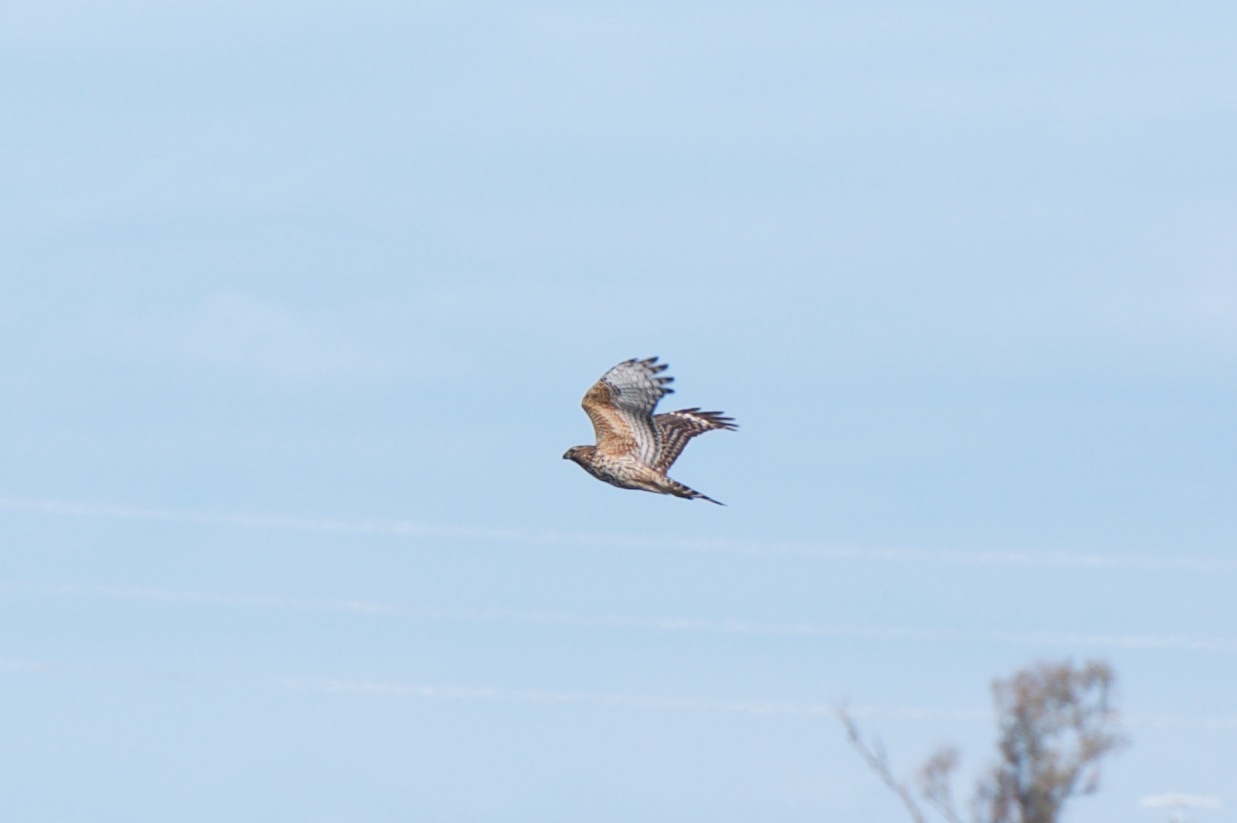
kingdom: Animalia
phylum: Chordata
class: Aves
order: Accipitriformes
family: Accipitridae
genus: Buteo
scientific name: Buteo lineatus
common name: Red-shouldered hawk
